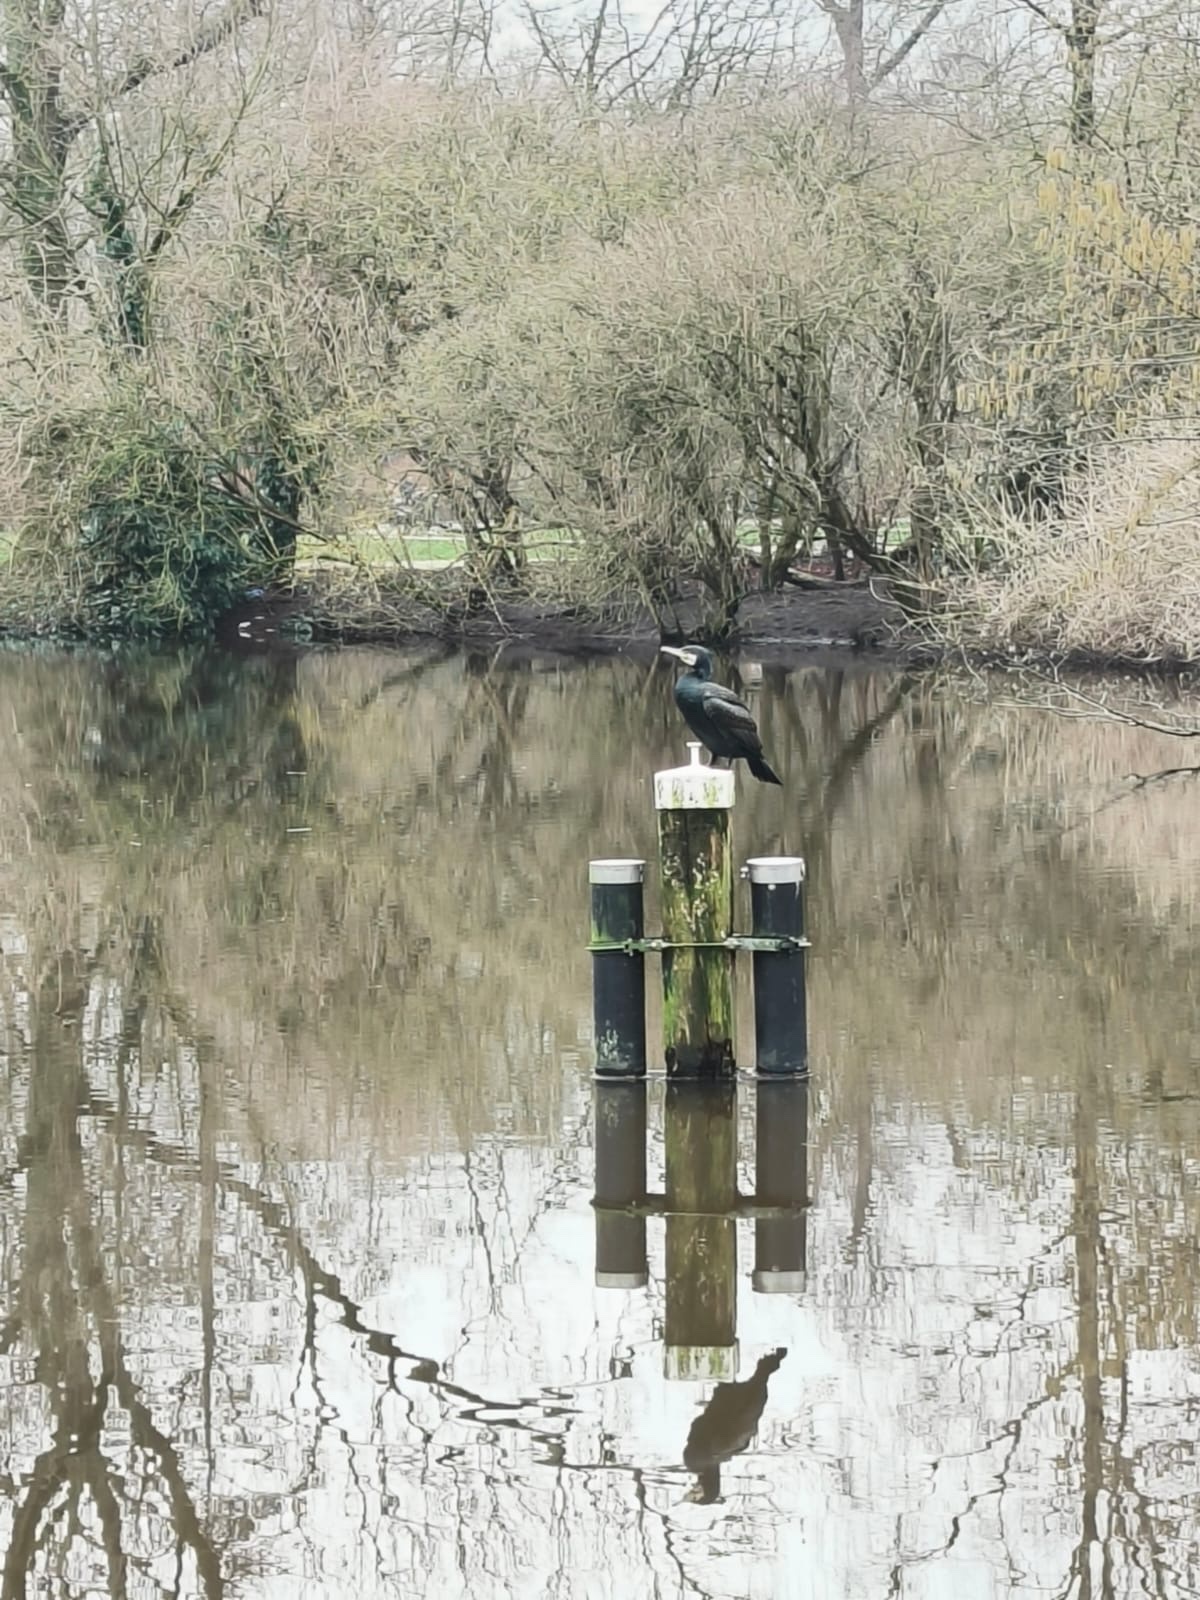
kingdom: Animalia
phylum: Chordata
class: Aves
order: Suliformes
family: Phalacrocoracidae
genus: Phalacrocorax
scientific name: Phalacrocorax carbo
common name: Great cormorant
